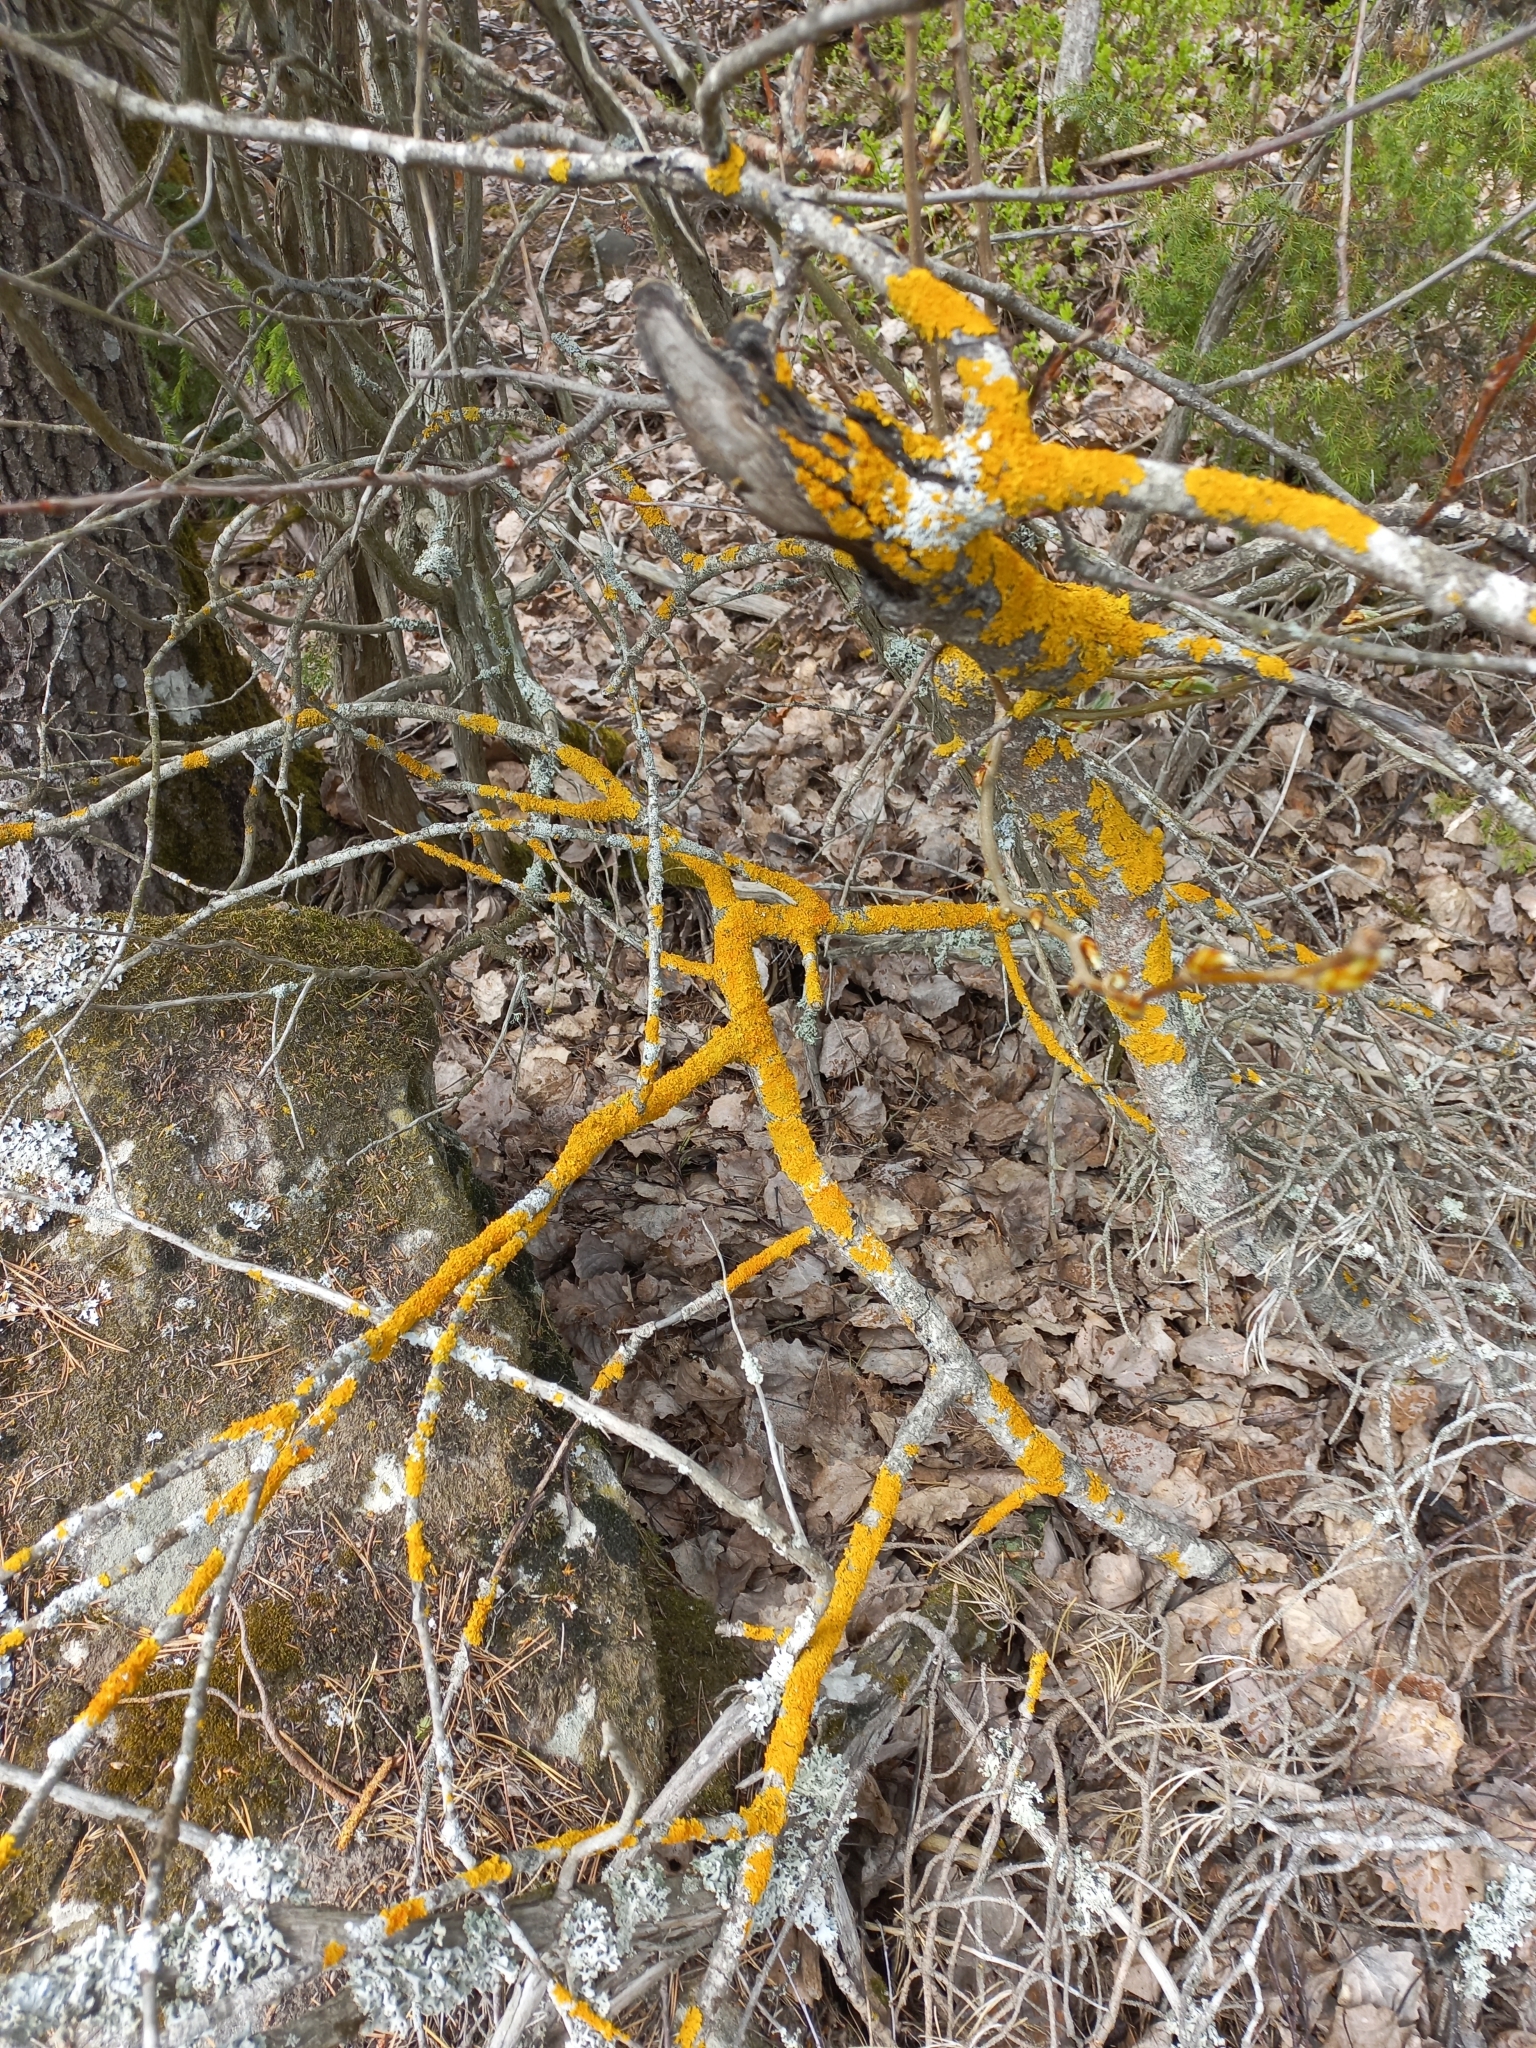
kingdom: Fungi
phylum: Ascomycota
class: Lecanoromycetes
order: Teloschistales
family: Teloschistaceae
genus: Xanthoria
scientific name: Xanthoria parietina
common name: Common orange lichen
